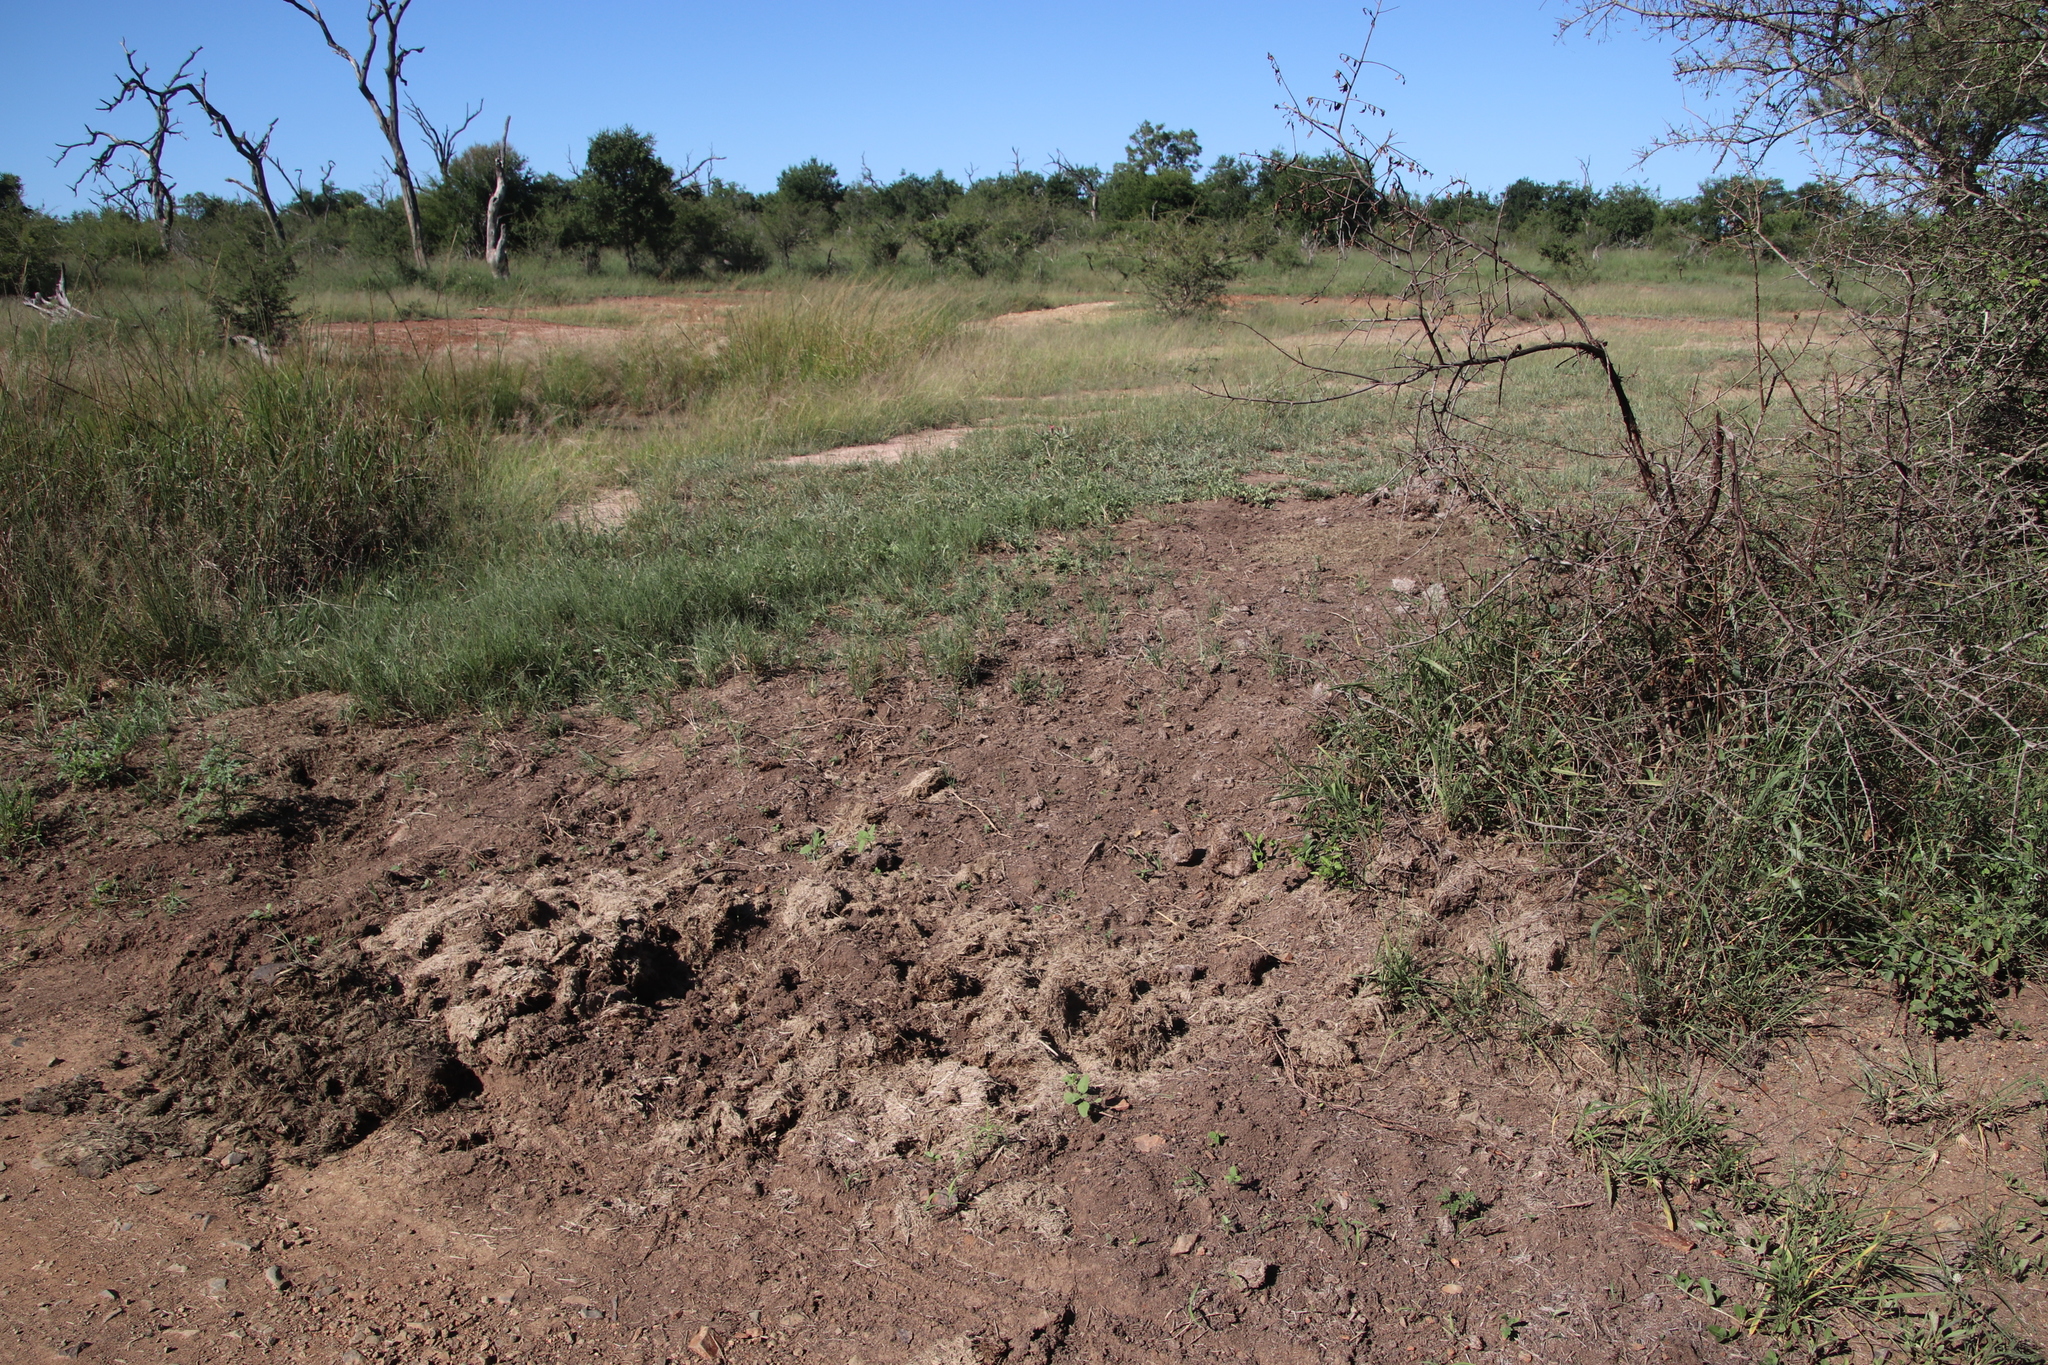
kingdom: Animalia
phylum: Chordata
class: Mammalia
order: Perissodactyla
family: Rhinocerotidae
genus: Ceratotherium
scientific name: Ceratotherium simum
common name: White rhinoceros
